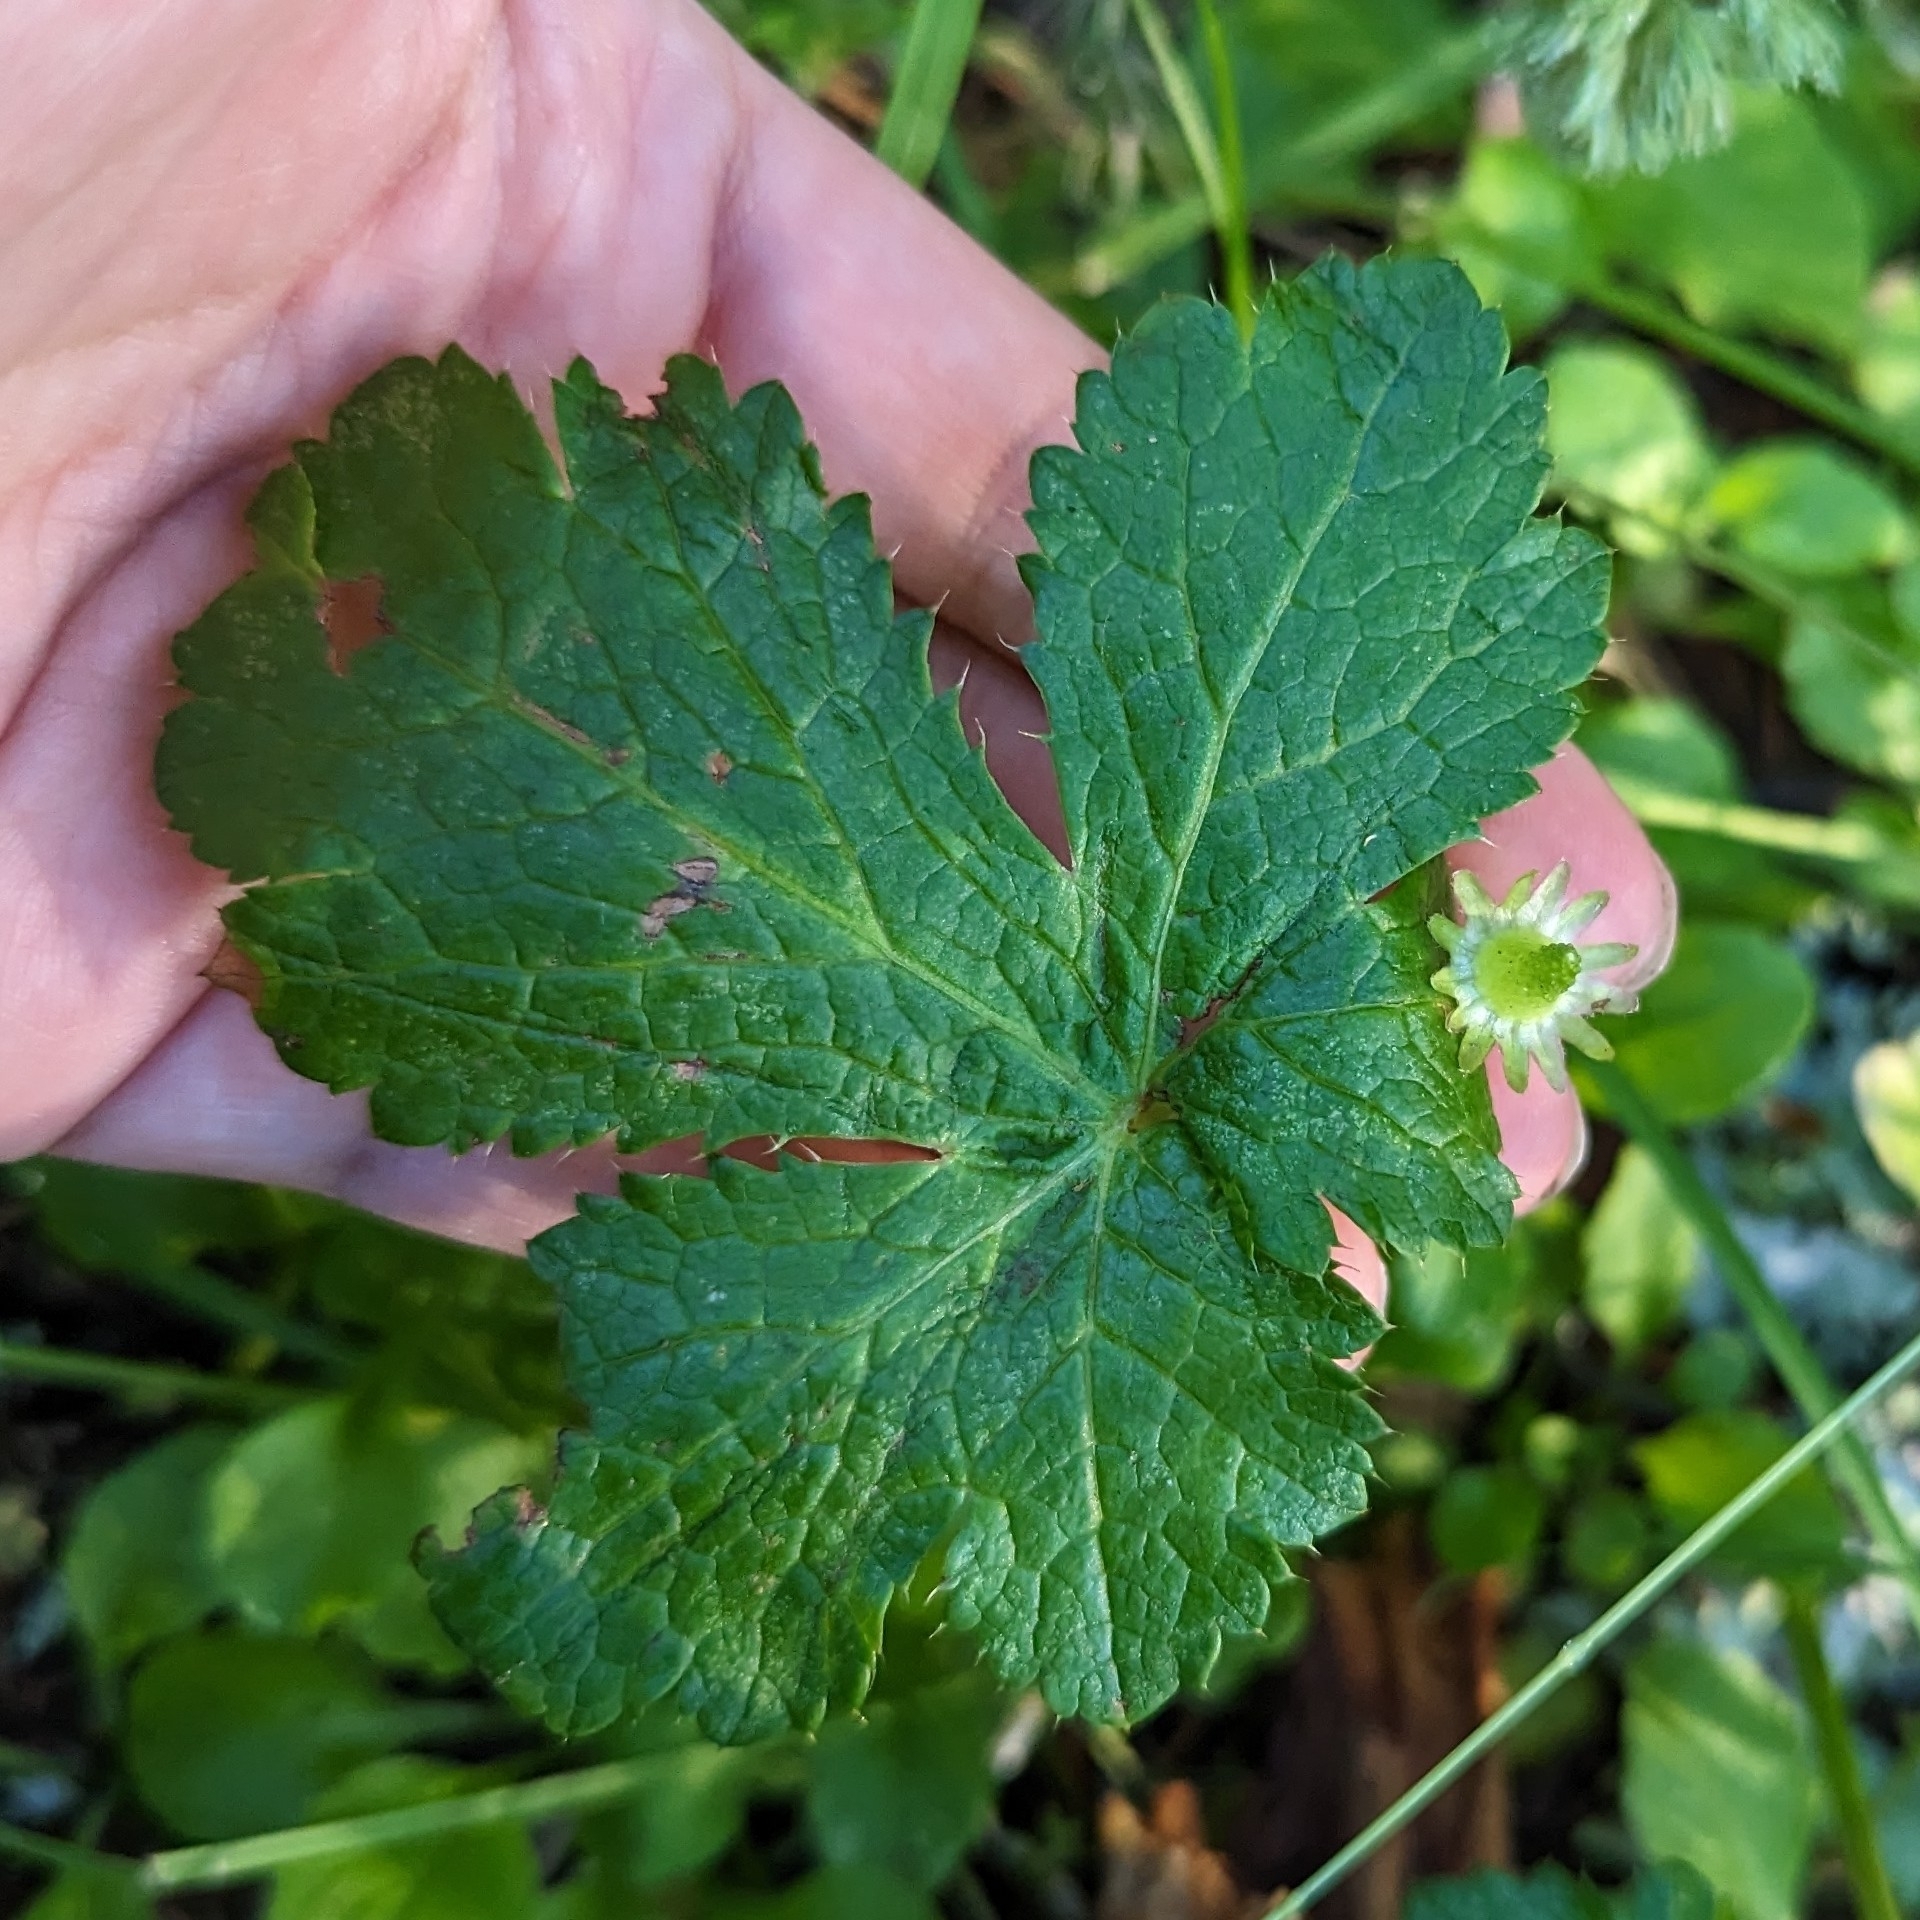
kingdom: Plantae
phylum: Tracheophyta
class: Magnoliopsida
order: Apiales
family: Apiaceae
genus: Sanicula
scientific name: Sanicula crassicaulis
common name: Western snakeroot
